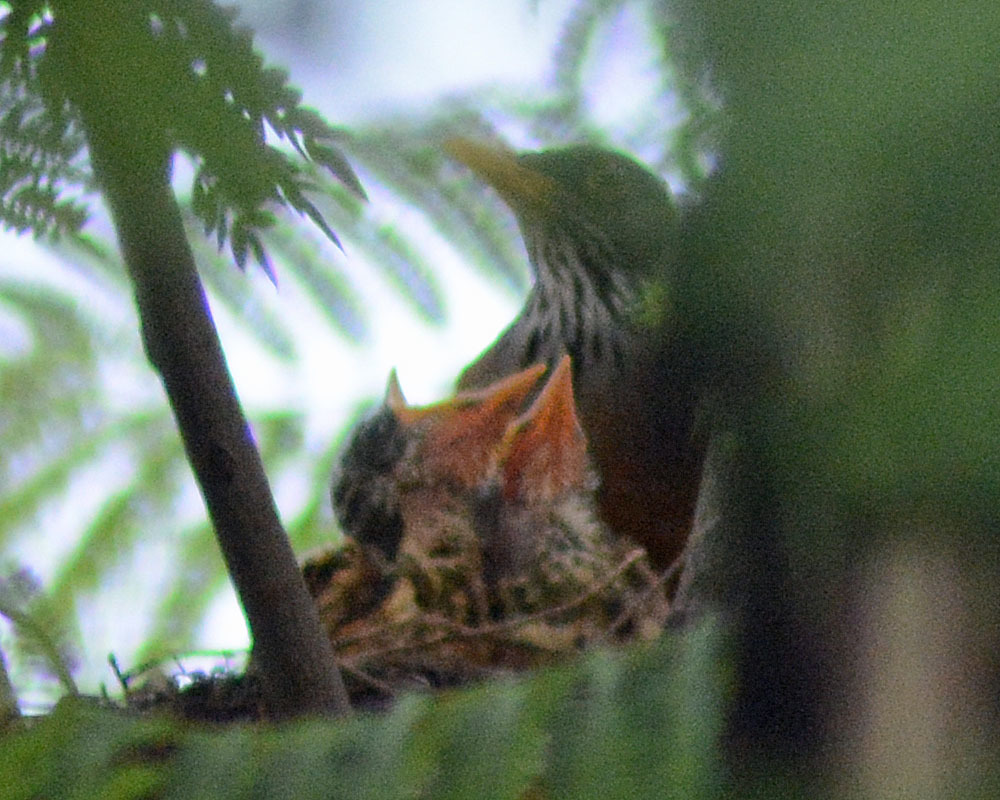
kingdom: Animalia
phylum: Chordata
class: Aves
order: Passeriformes
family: Turdidae
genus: Turdus
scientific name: Turdus rufopalliatus
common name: Rufous-backed robin
